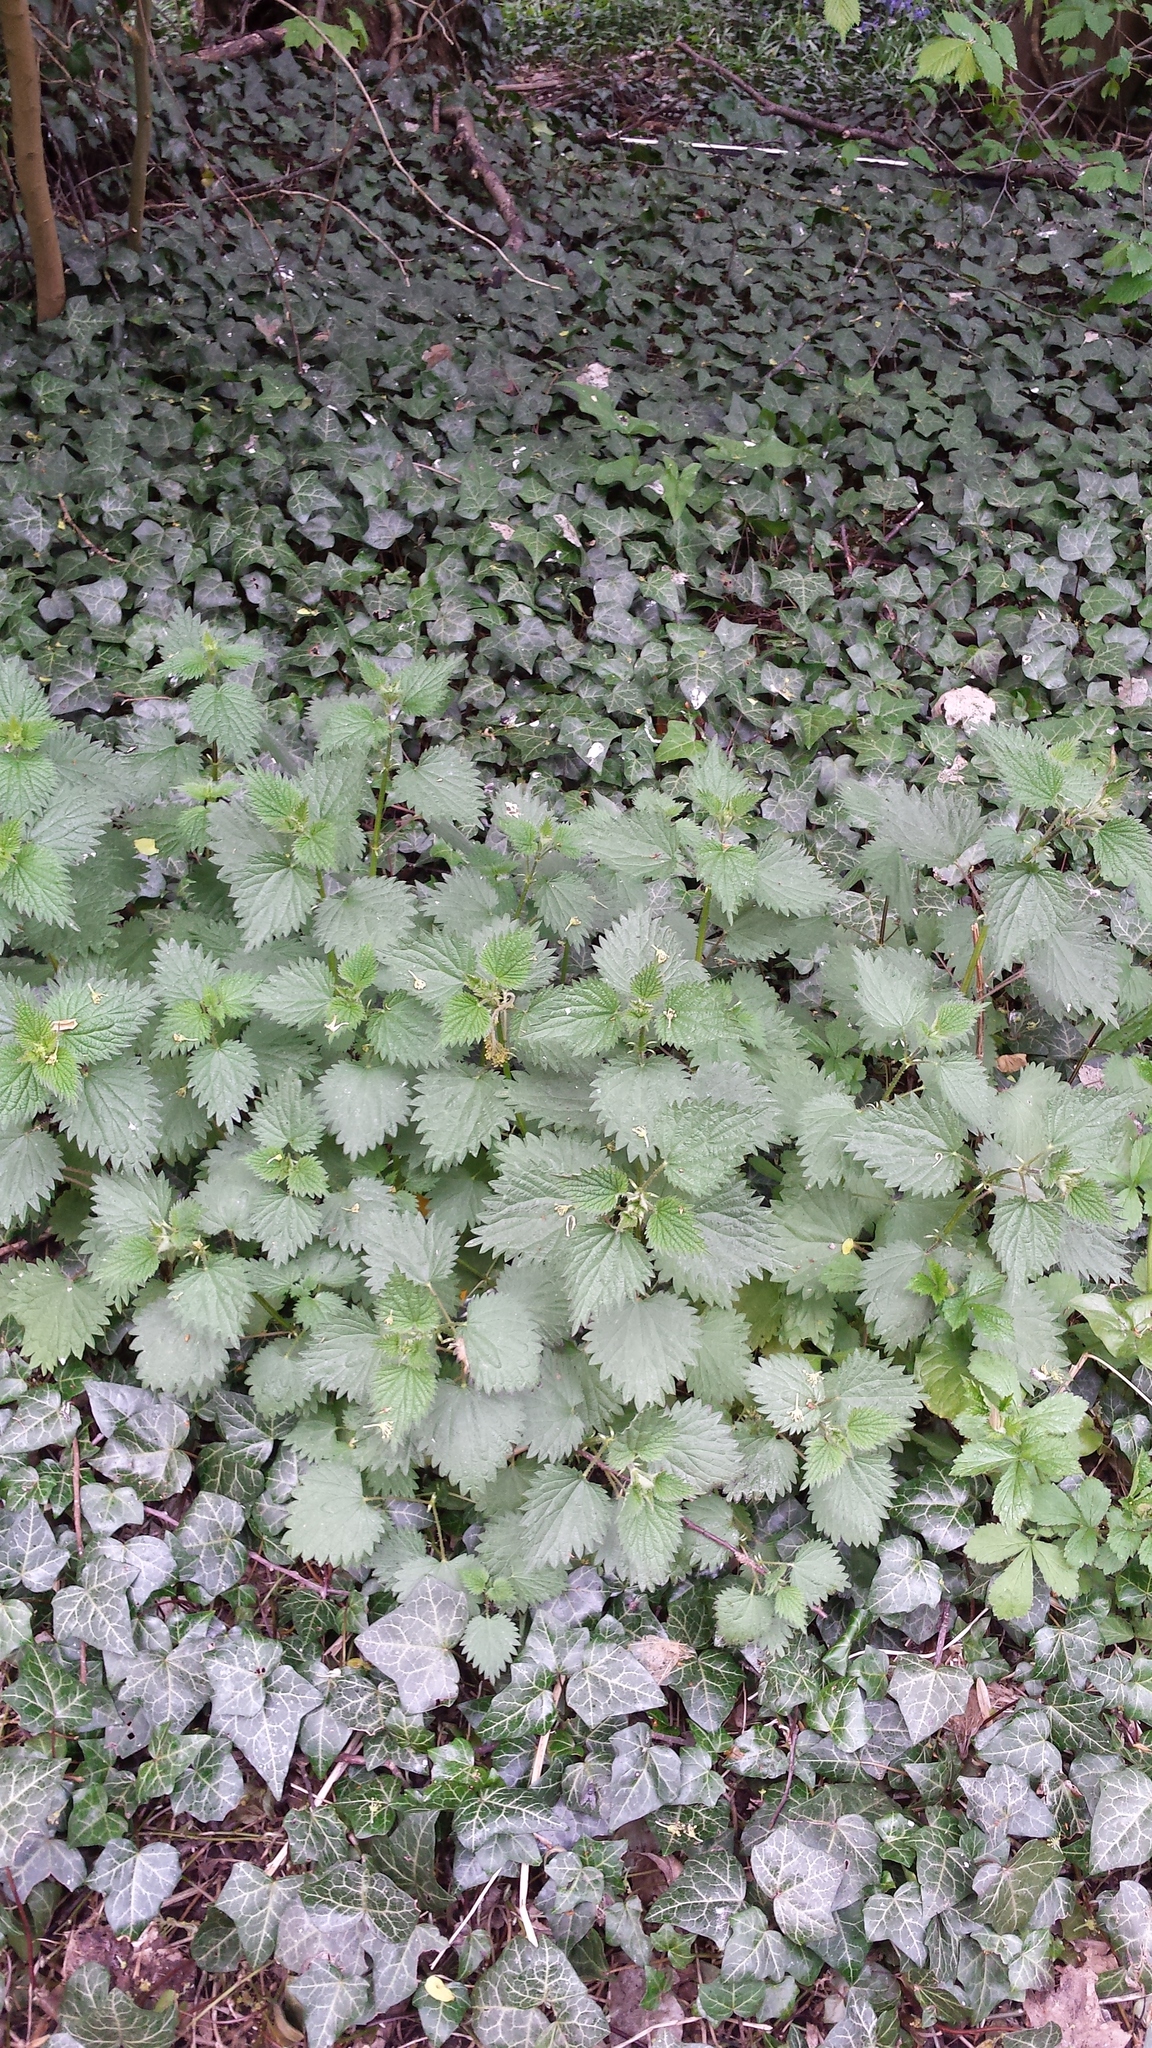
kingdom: Plantae
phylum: Tracheophyta
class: Magnoliopsida
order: Rosales
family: Urticaceae
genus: Urtica
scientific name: Urtica dioica
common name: Common nettle
